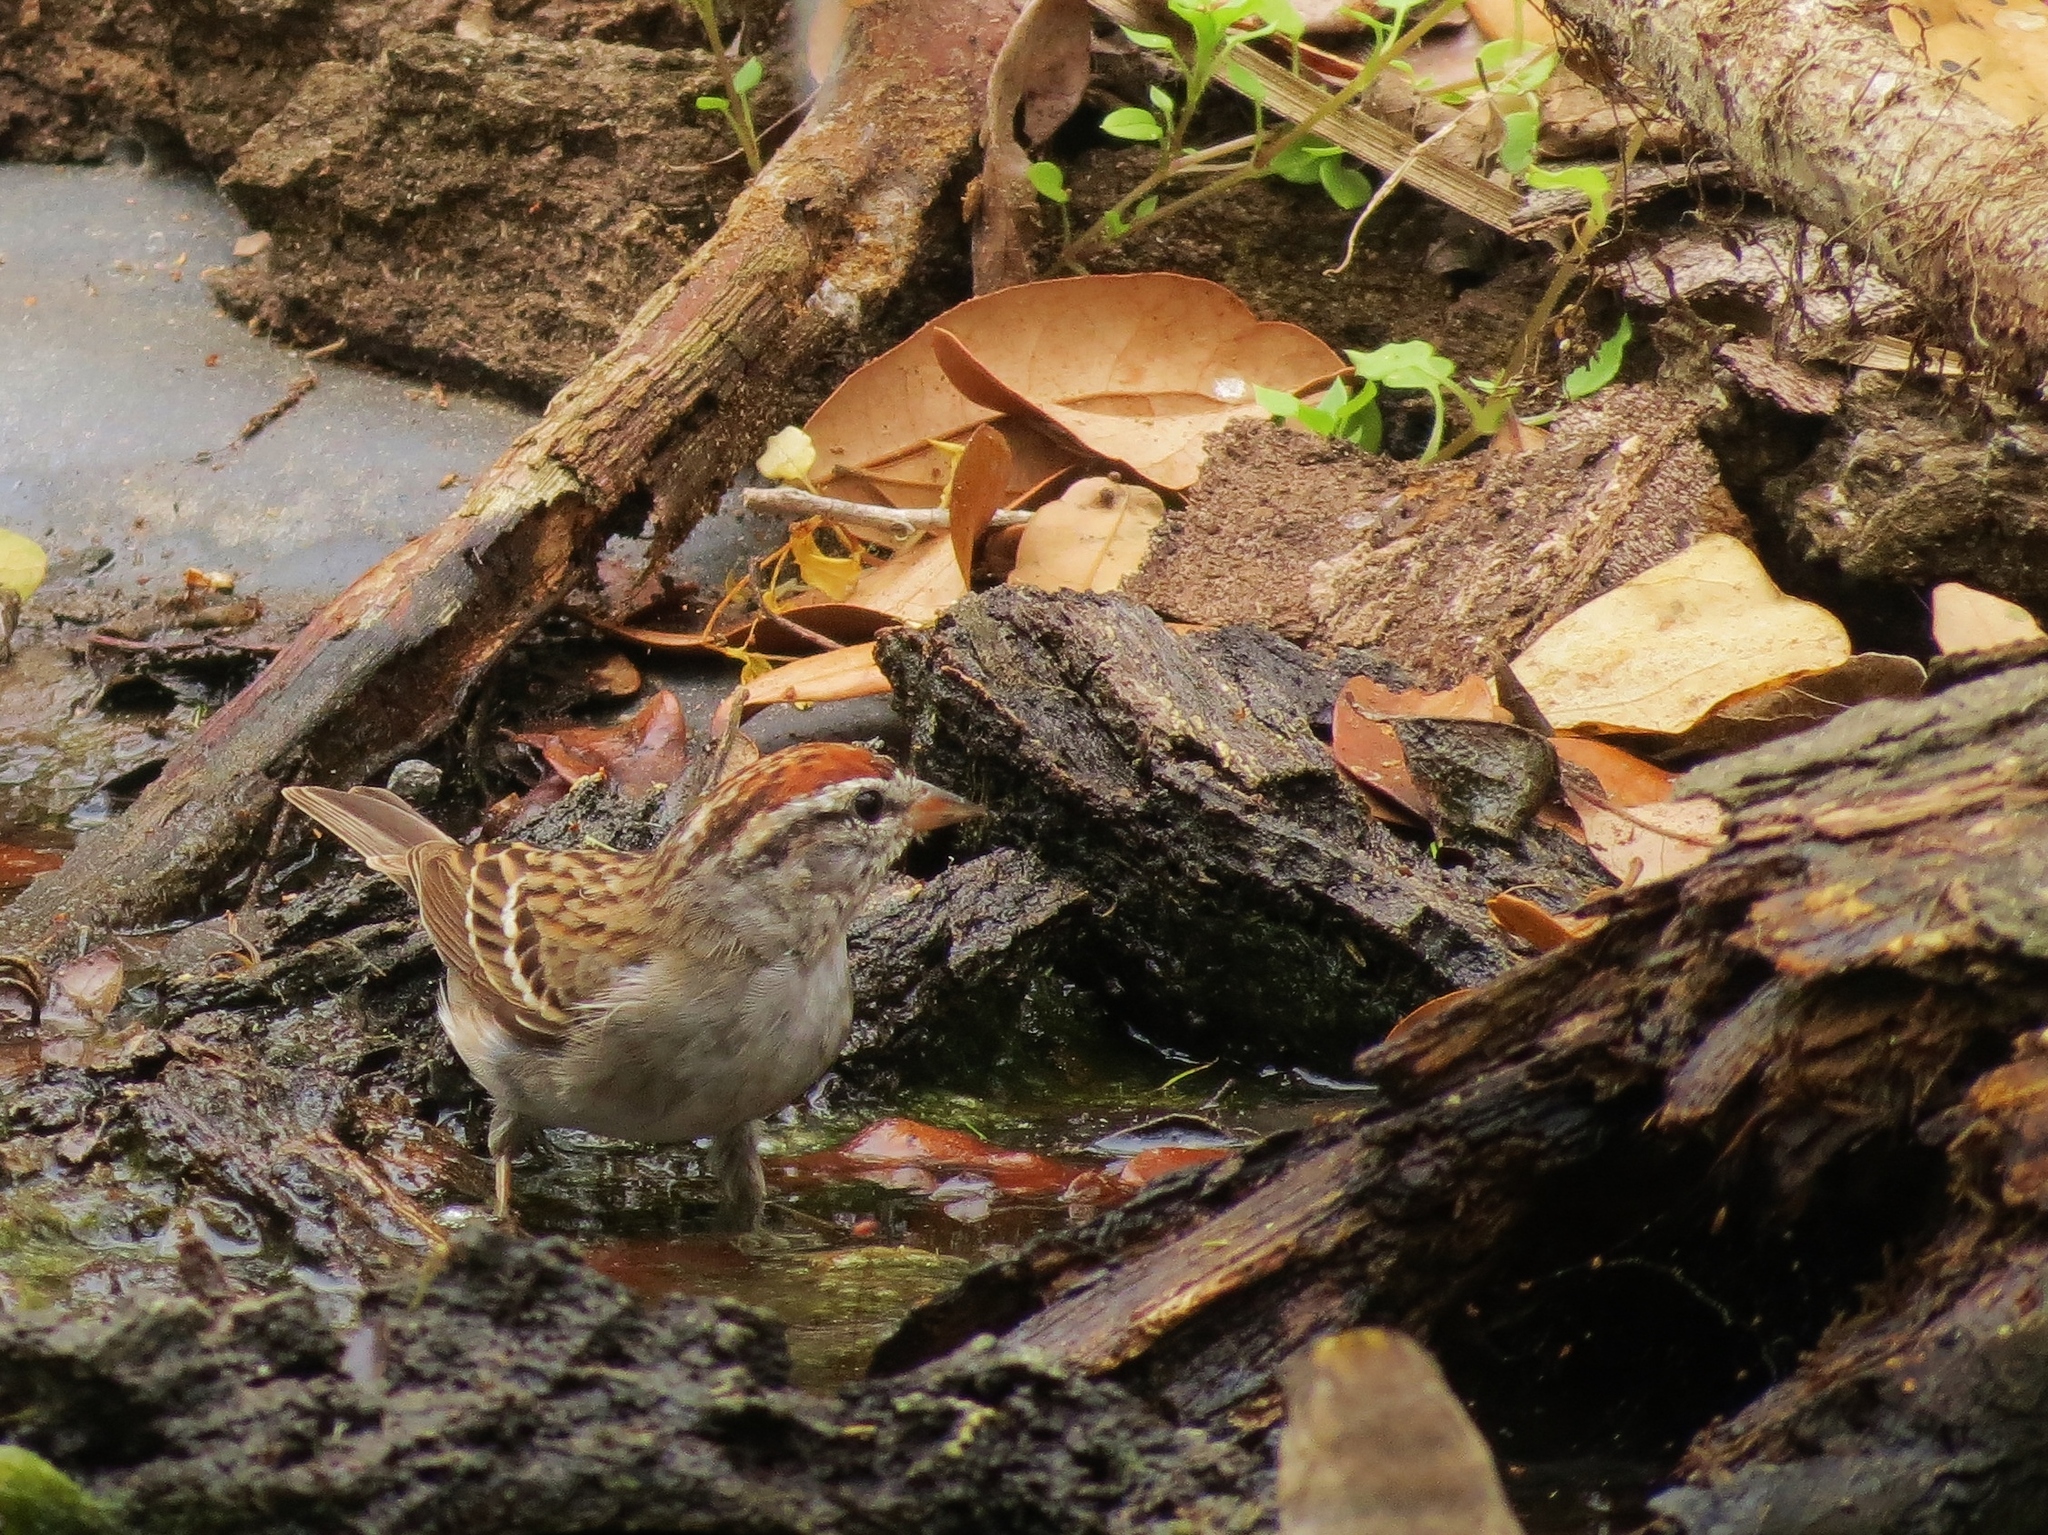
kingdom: Animalia
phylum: Chordata
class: Aves
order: Passeriformes
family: Passerellidae
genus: Spizella
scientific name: Spizella passerina
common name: Chipping sparrow
